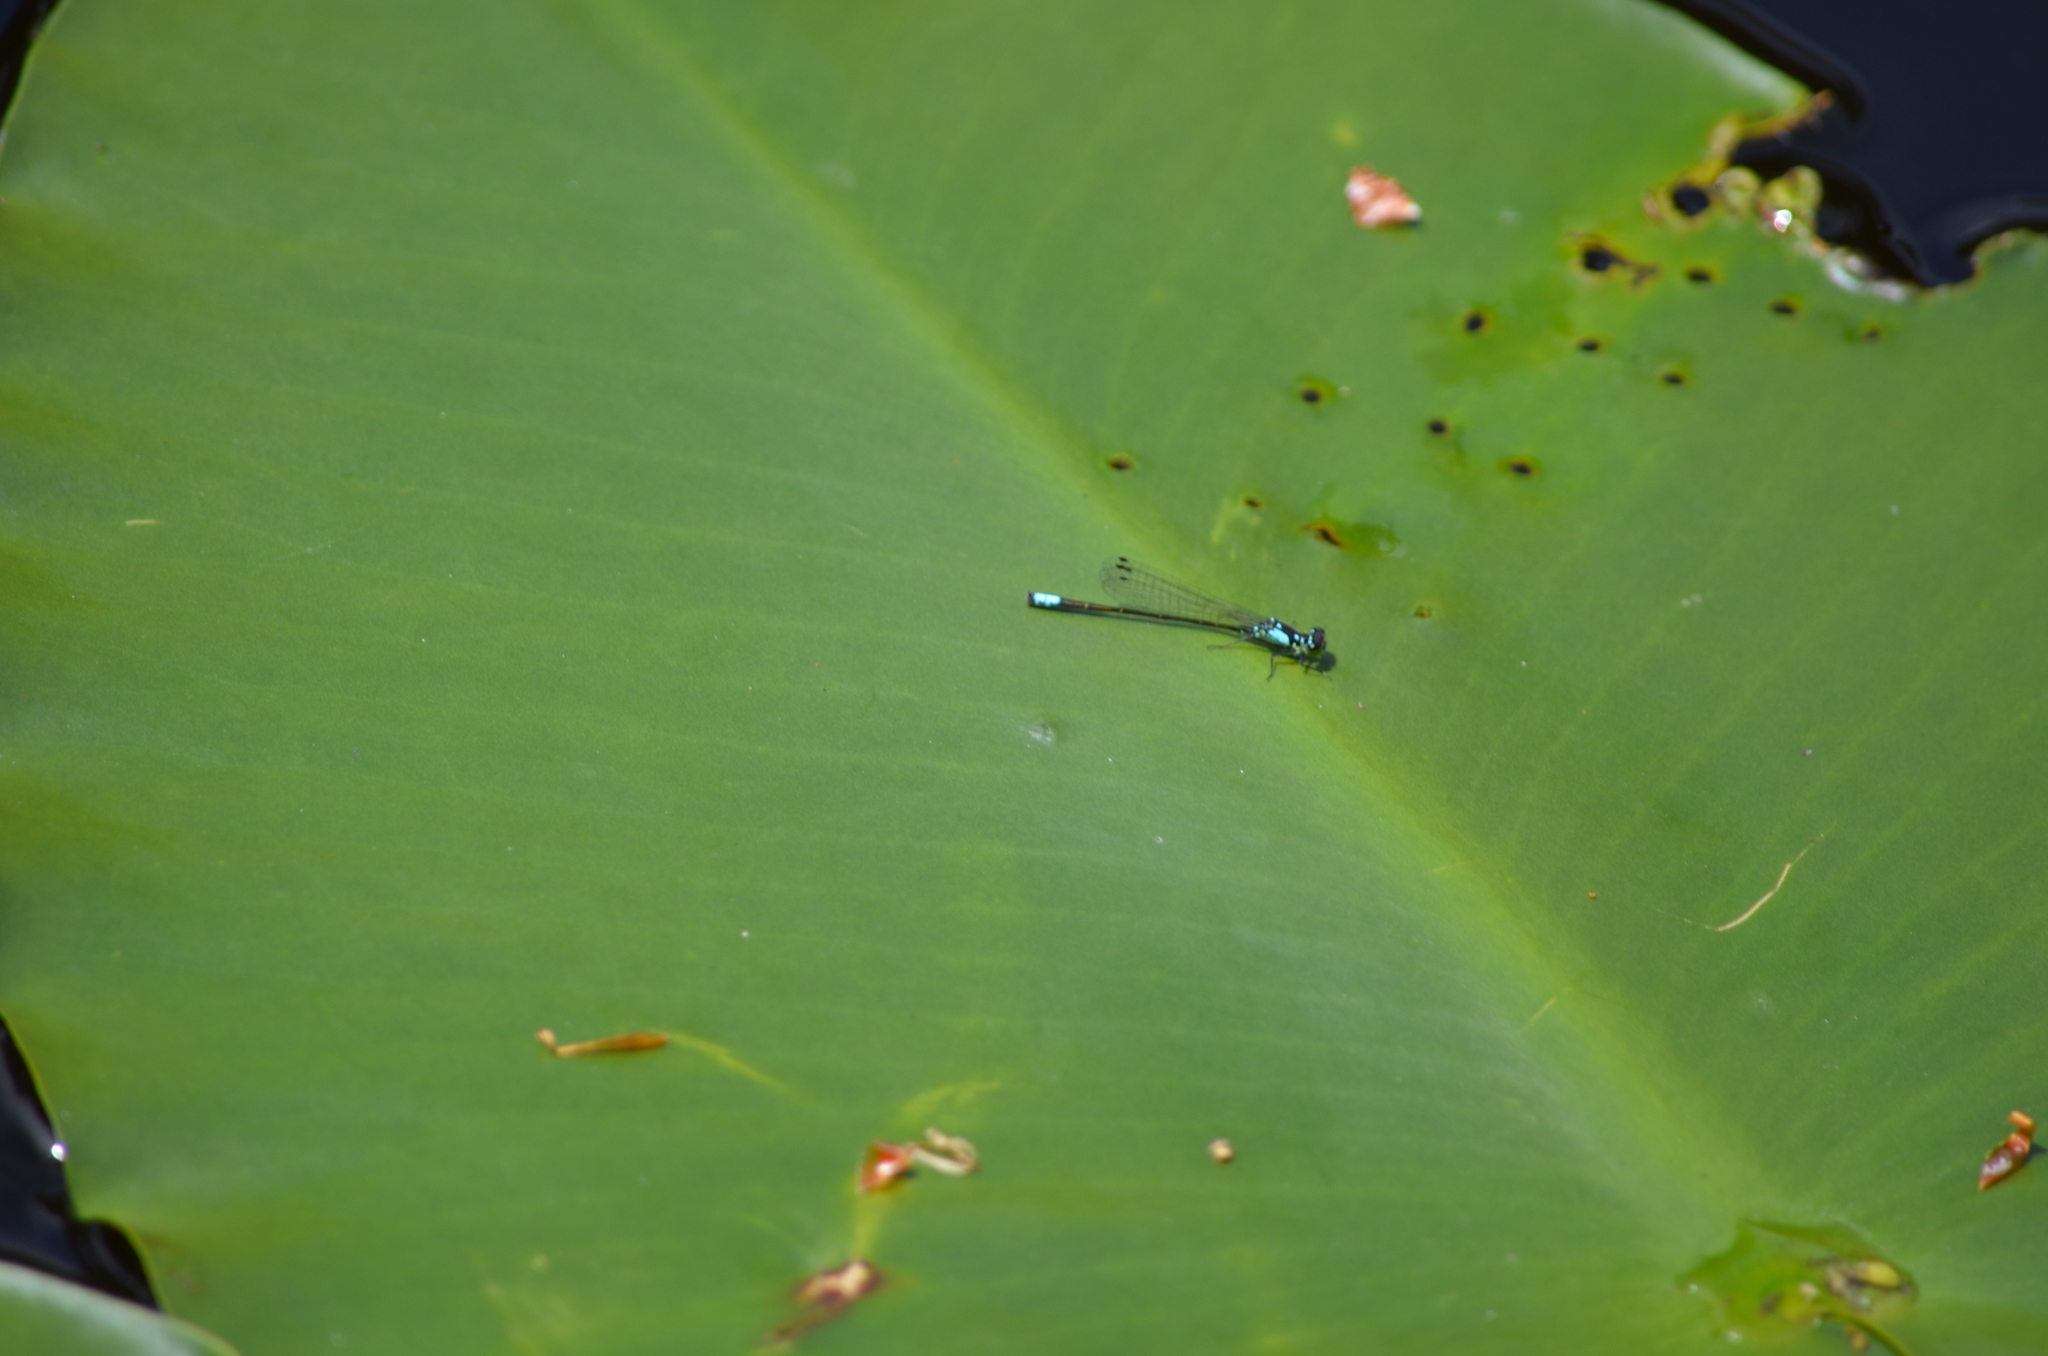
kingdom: Animalia
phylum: Arthropoda
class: Insecta
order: Odonata
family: Coenagrionidae
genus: Ischnura
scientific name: Ischnura cervula
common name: Pacific forktail
